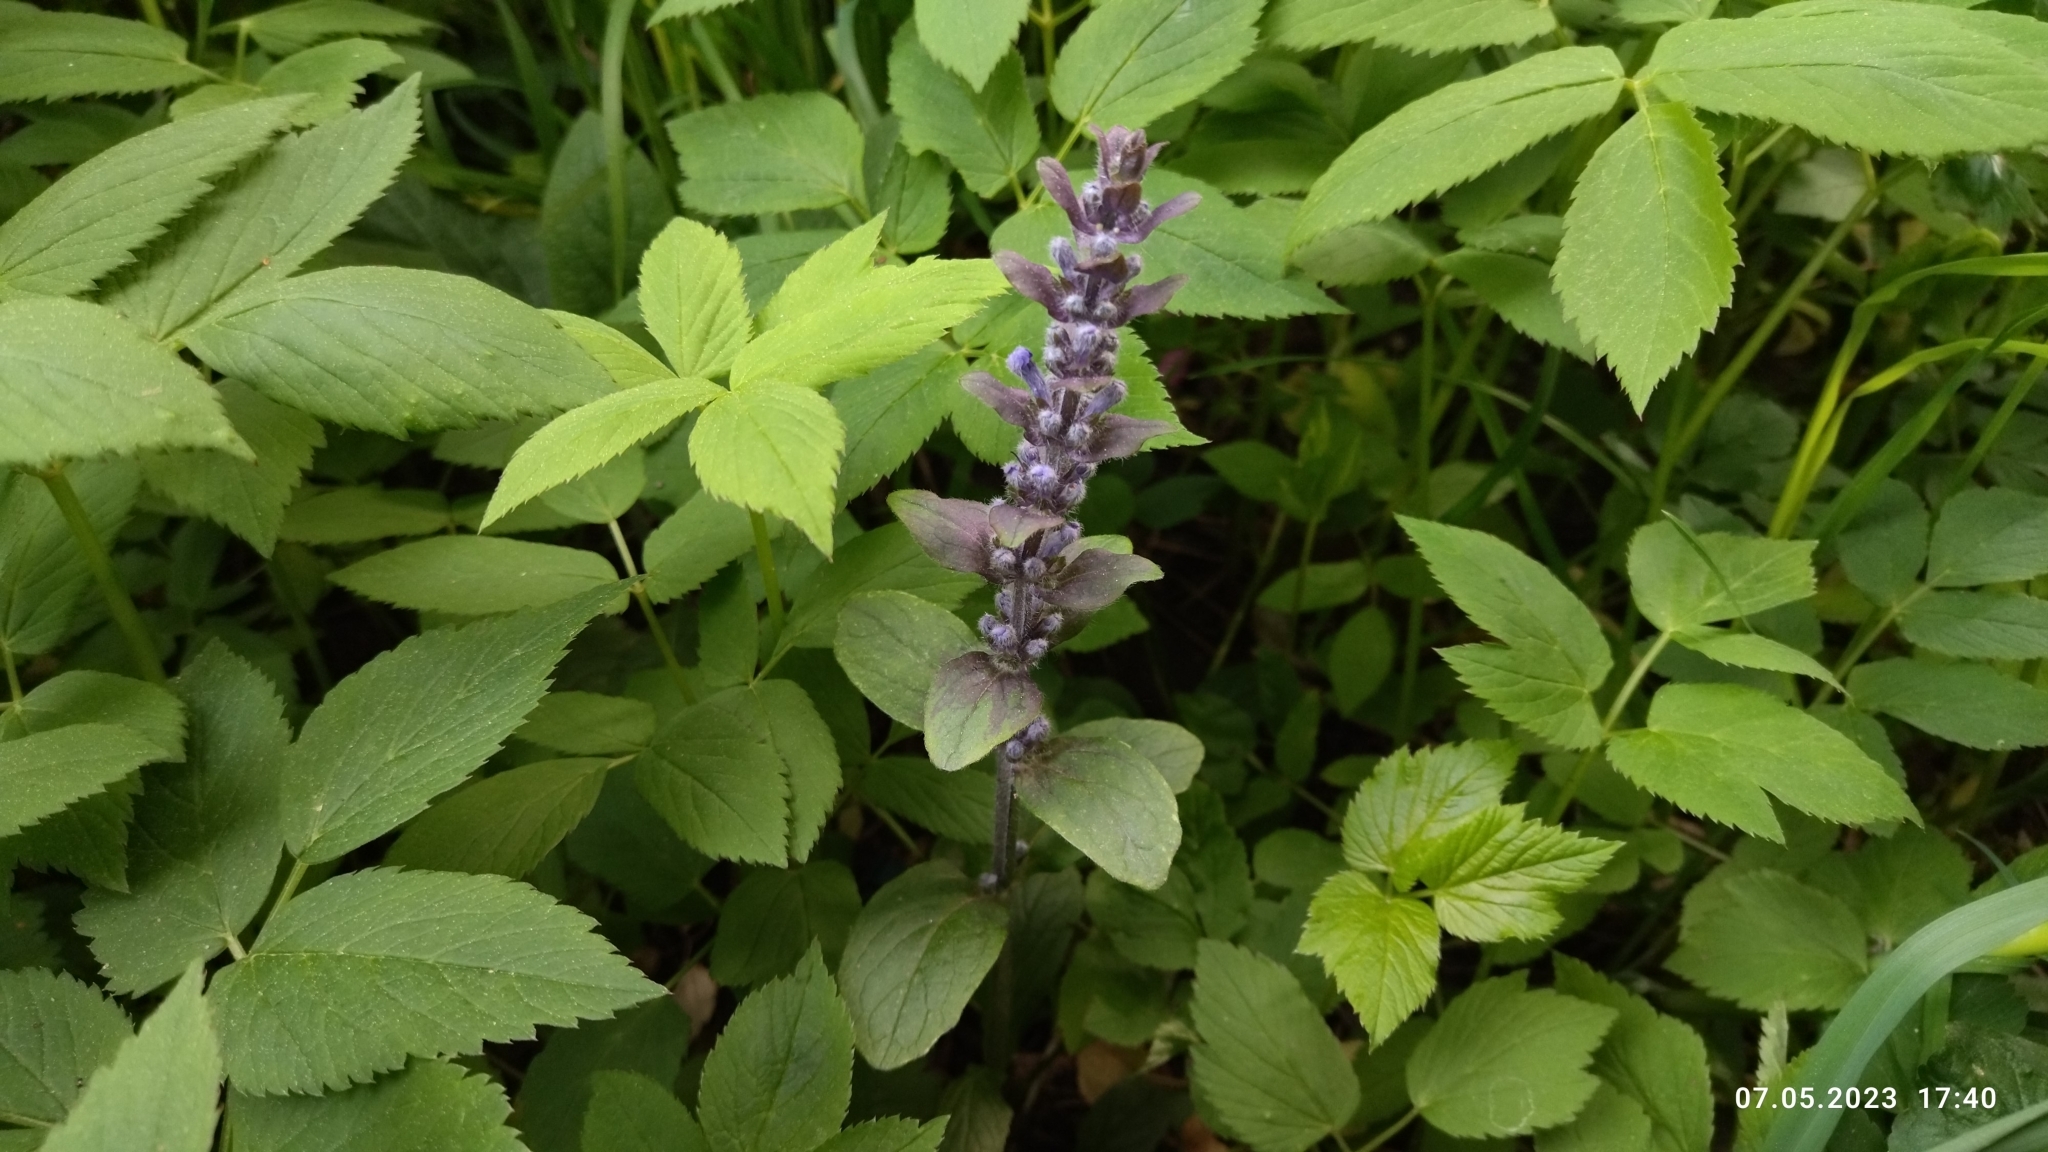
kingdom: Plantae
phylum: Tracheophyta
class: Magnoliopsida
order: Lamiales
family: Lamiaceae
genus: Ajuga
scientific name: Ajuga reptans
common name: Bugle
